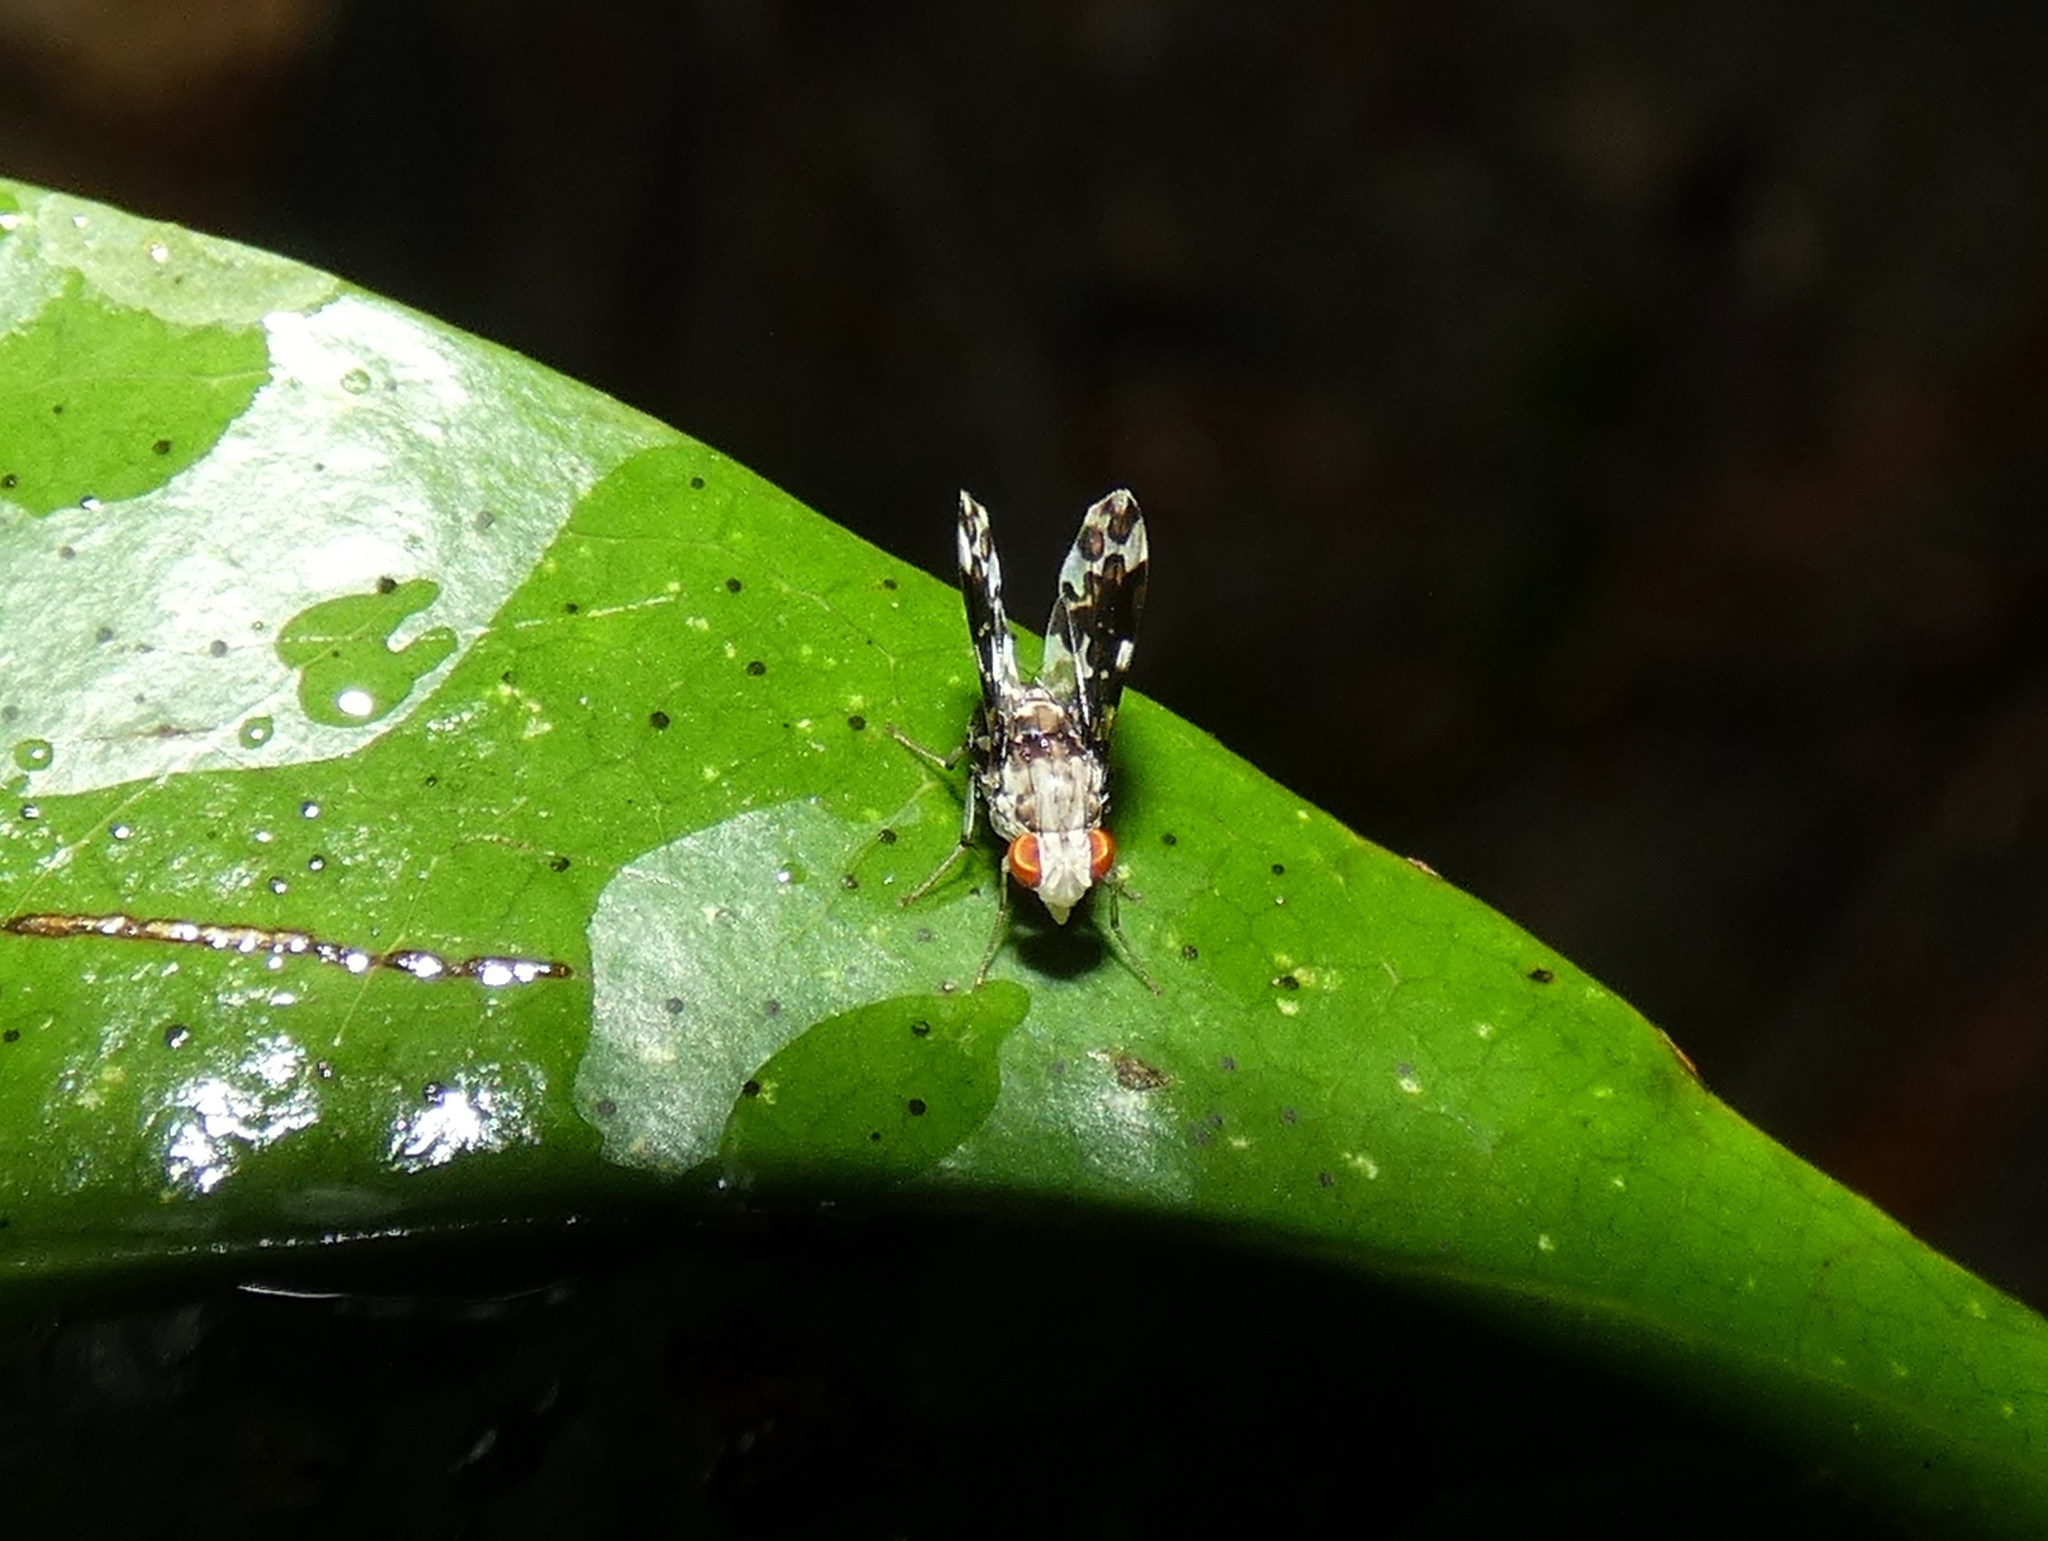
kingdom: Animalia
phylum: Arthropoda
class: Insecta
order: Diptera
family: Lauxaniidae
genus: Mettinia
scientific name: Mettinia suboceliifera
